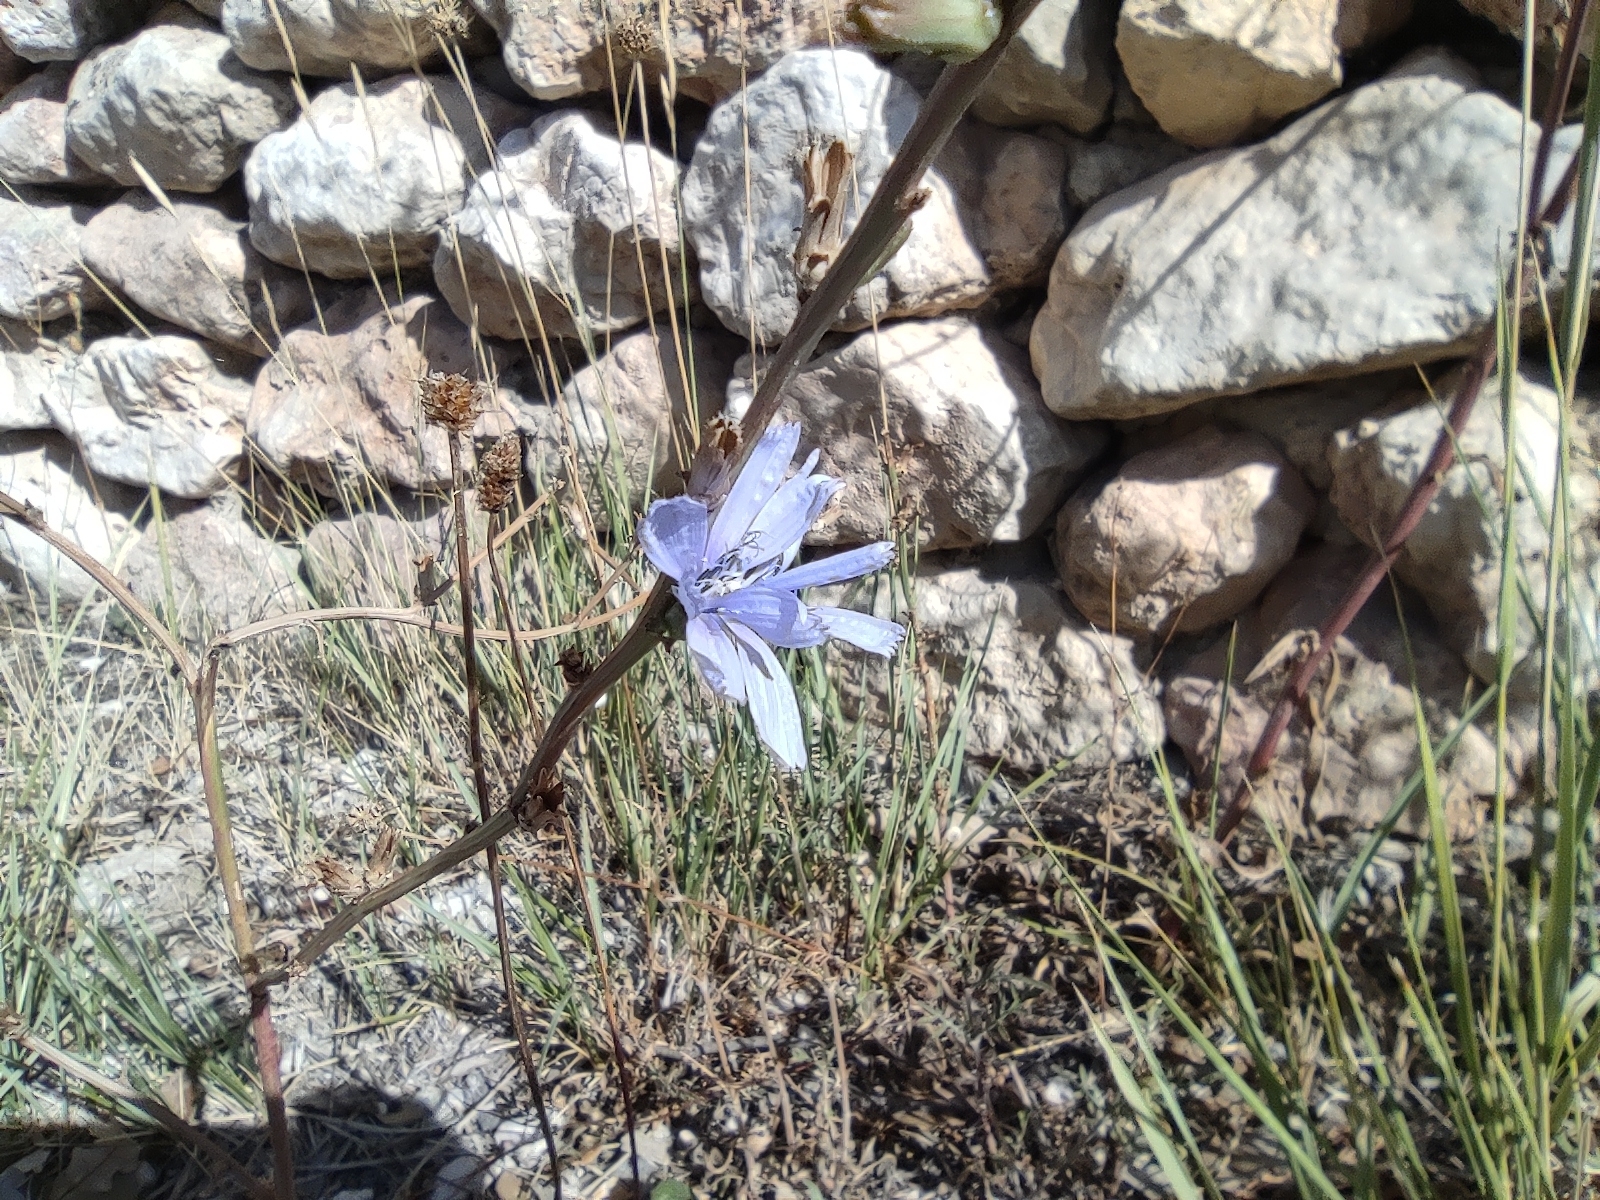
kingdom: Plantae
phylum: Tracheophyta
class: Magnoliopsida
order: Asterales
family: Asteraceae
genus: Cichorium
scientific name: Cichorium intybus
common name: Chicory
